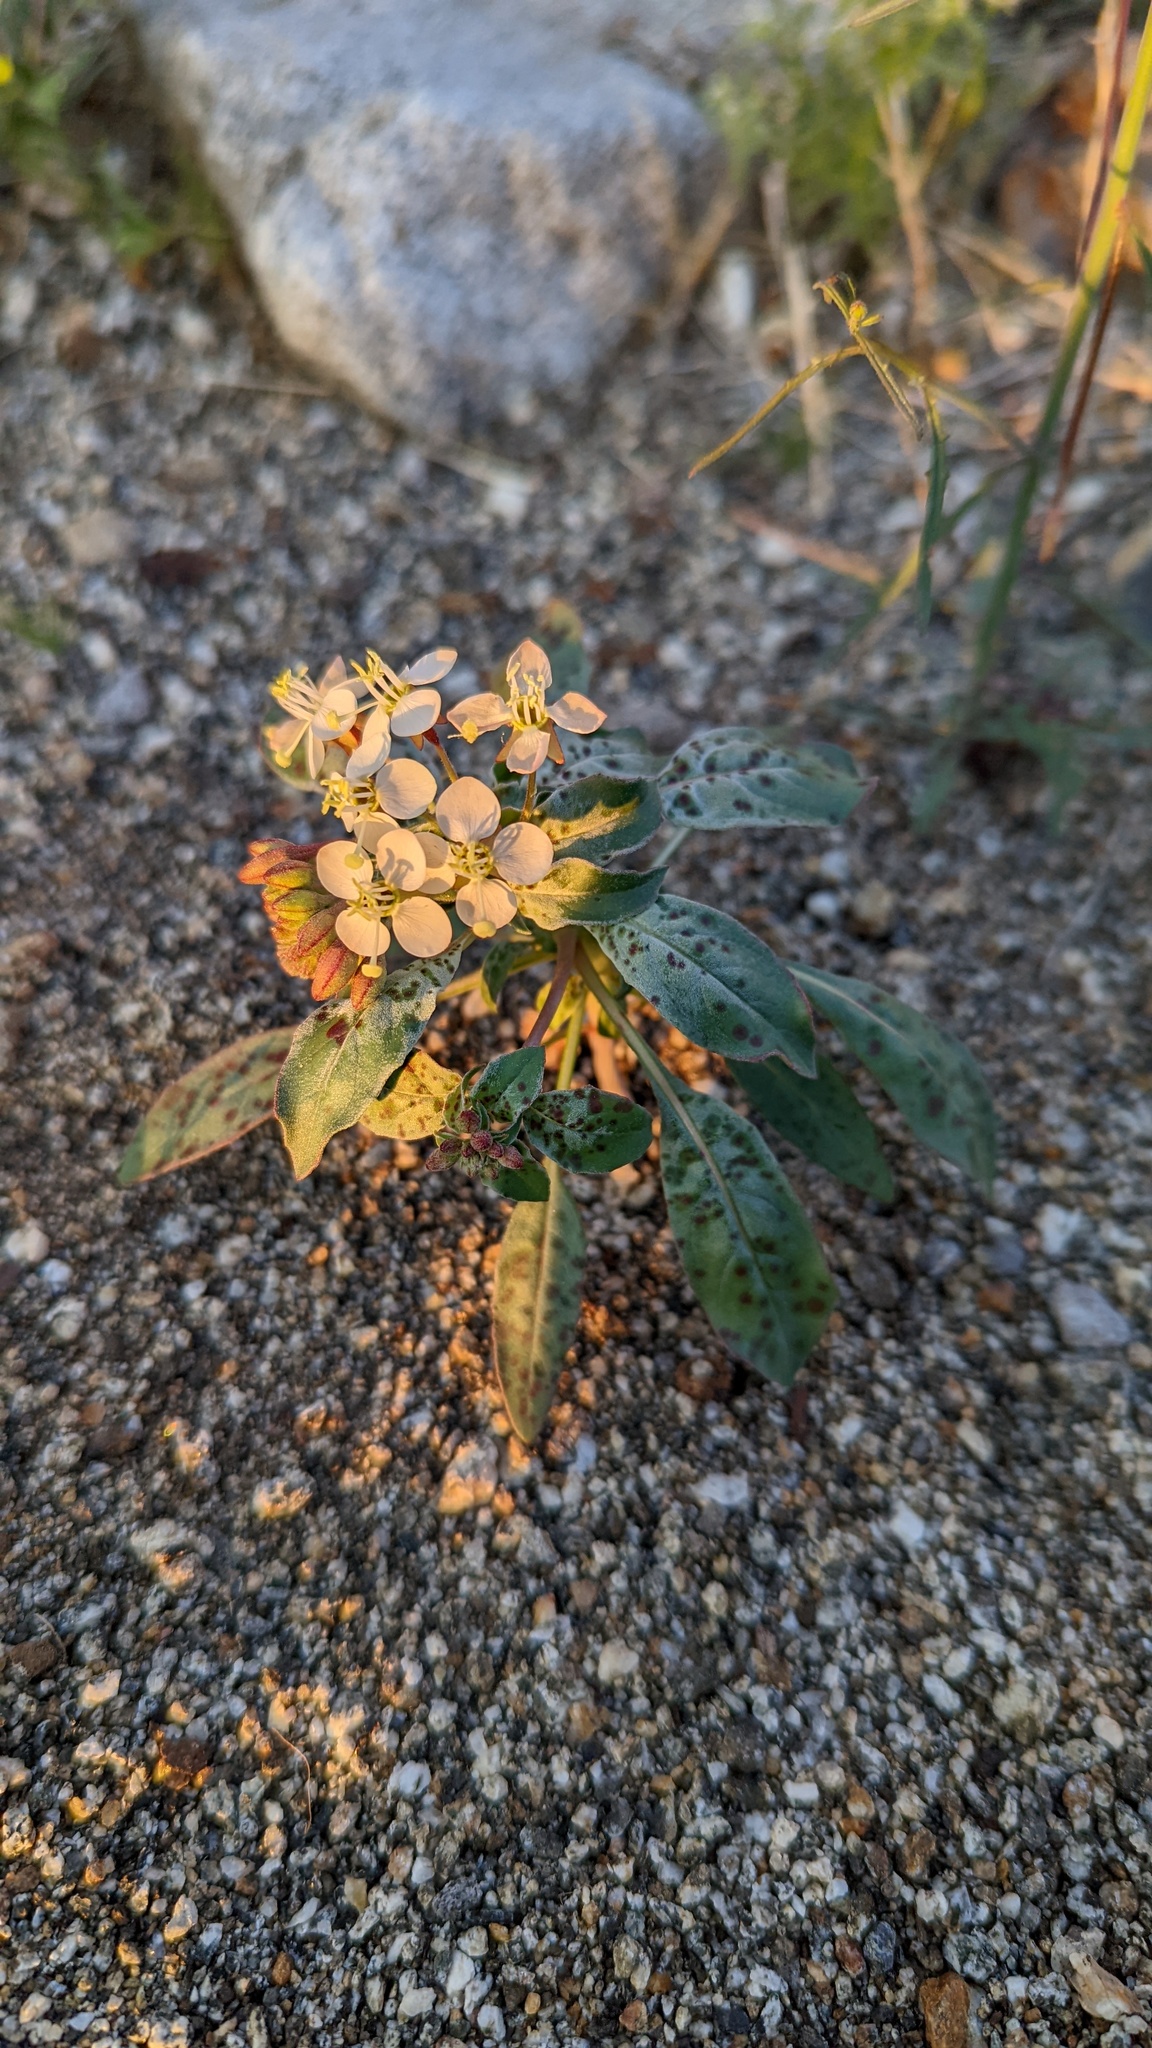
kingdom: Plantae
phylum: Tracheophyta
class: Magnoliopsida
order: Myrtales
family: Onagraceae
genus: Eremothera
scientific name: Eremothera boothii
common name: Booth's evening primrose
